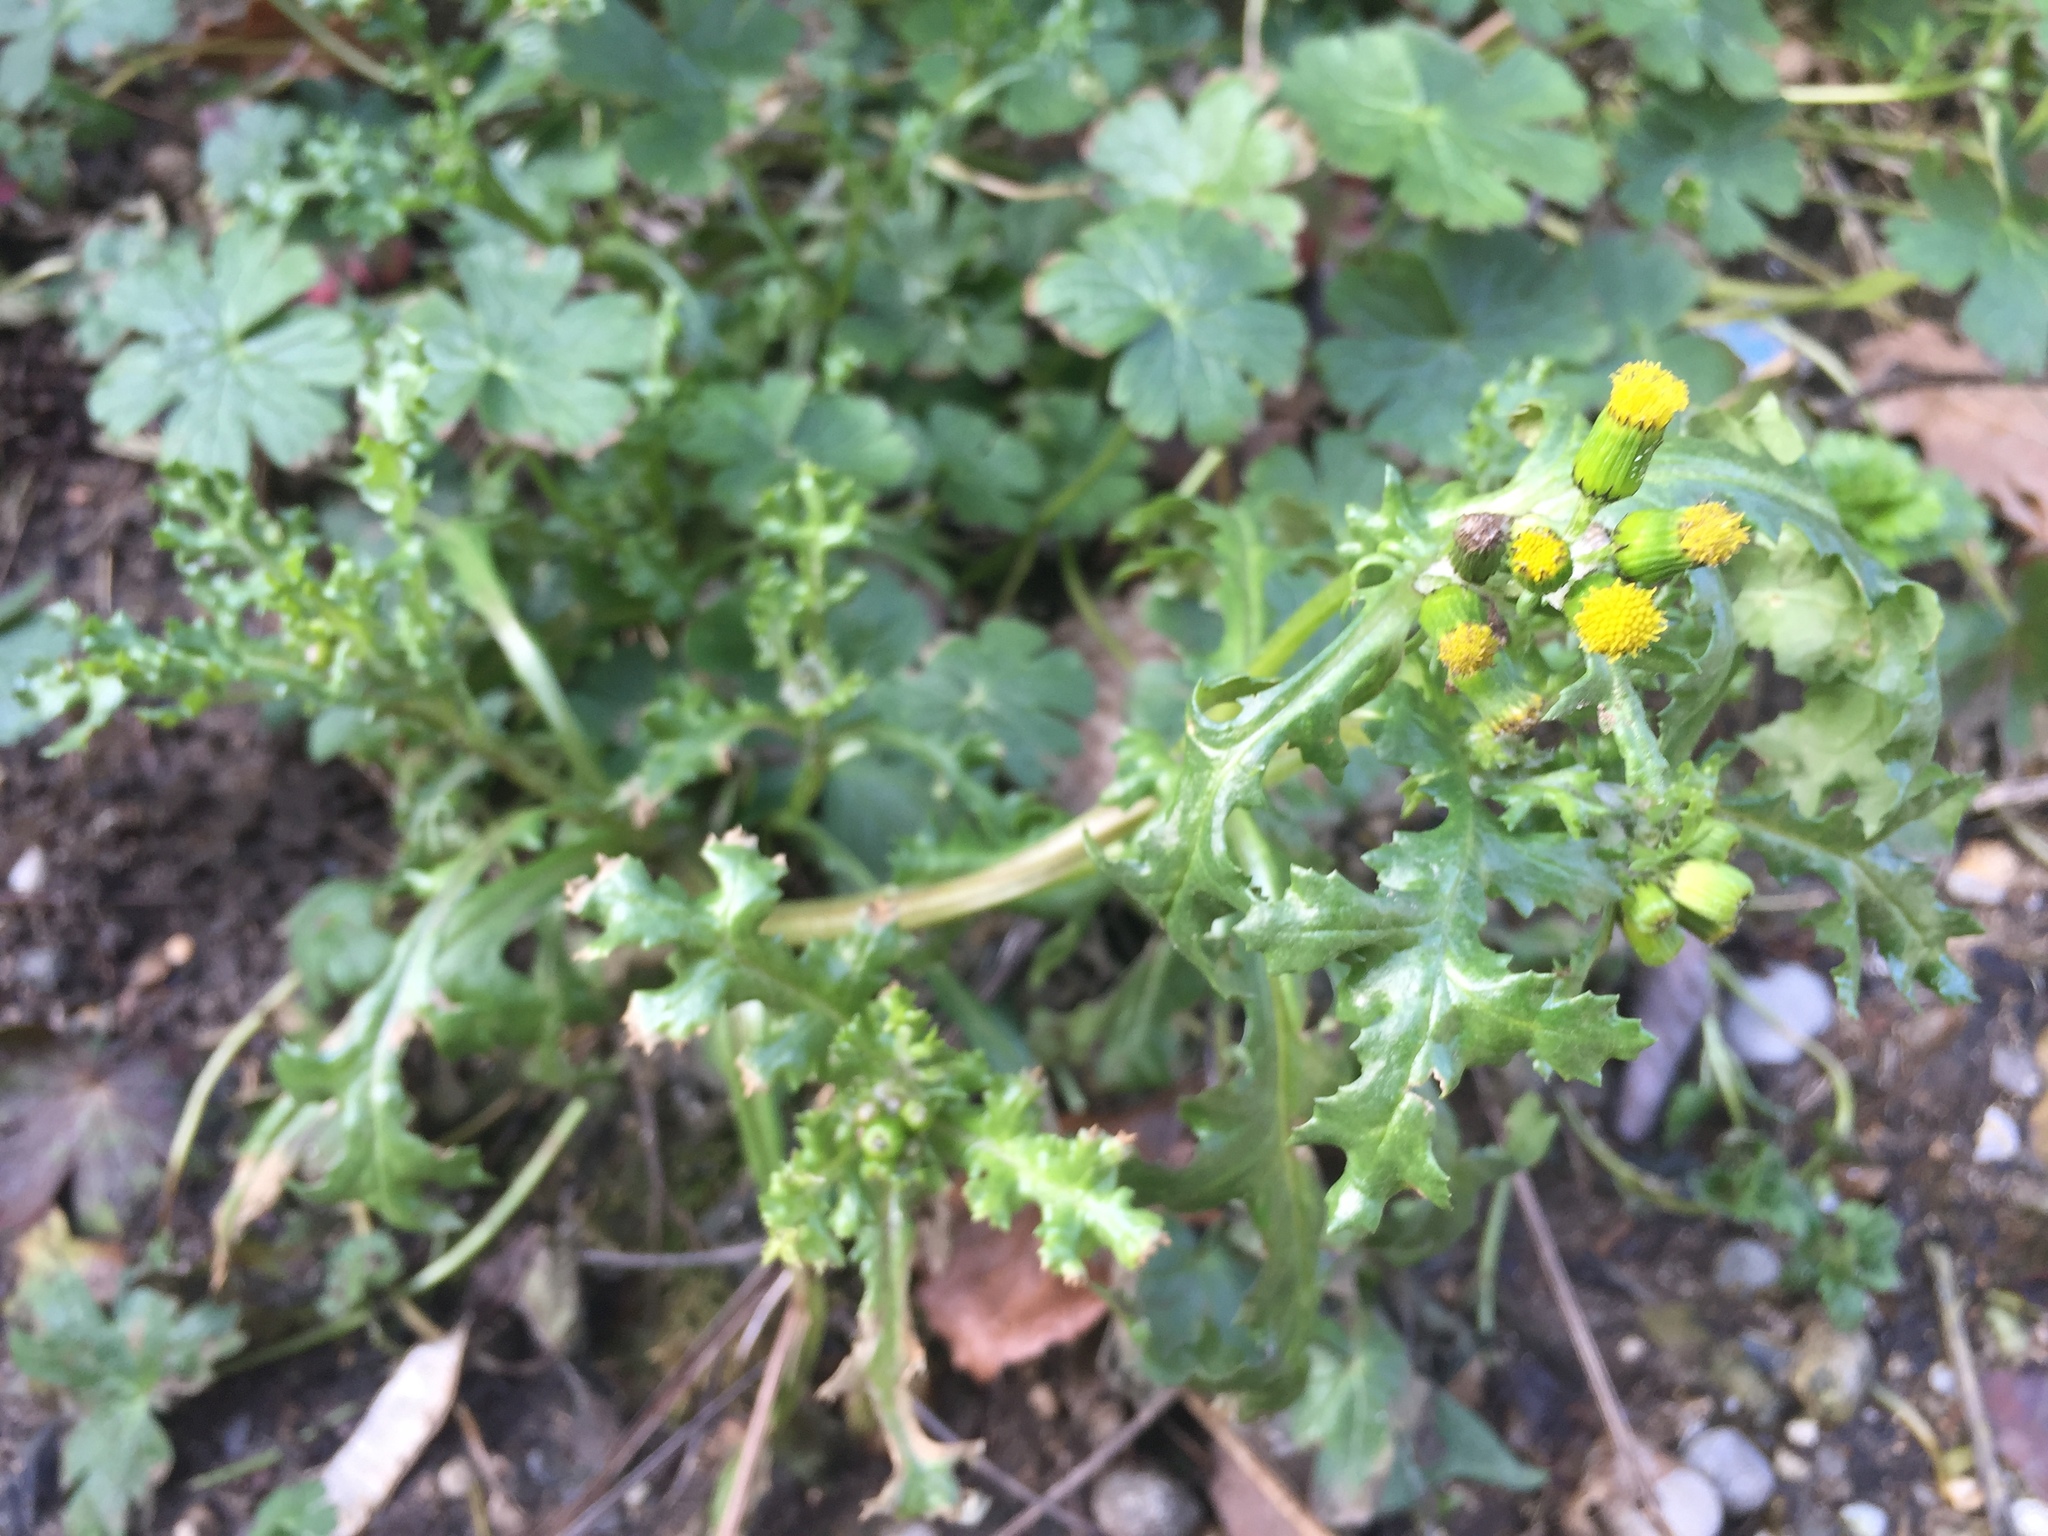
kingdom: Plantae
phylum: Tracheophyta
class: Magnoliopsida
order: Asterales
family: Asteraceae
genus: Senecio
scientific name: Senecio vulgaris
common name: Old-man-in-the-spring
